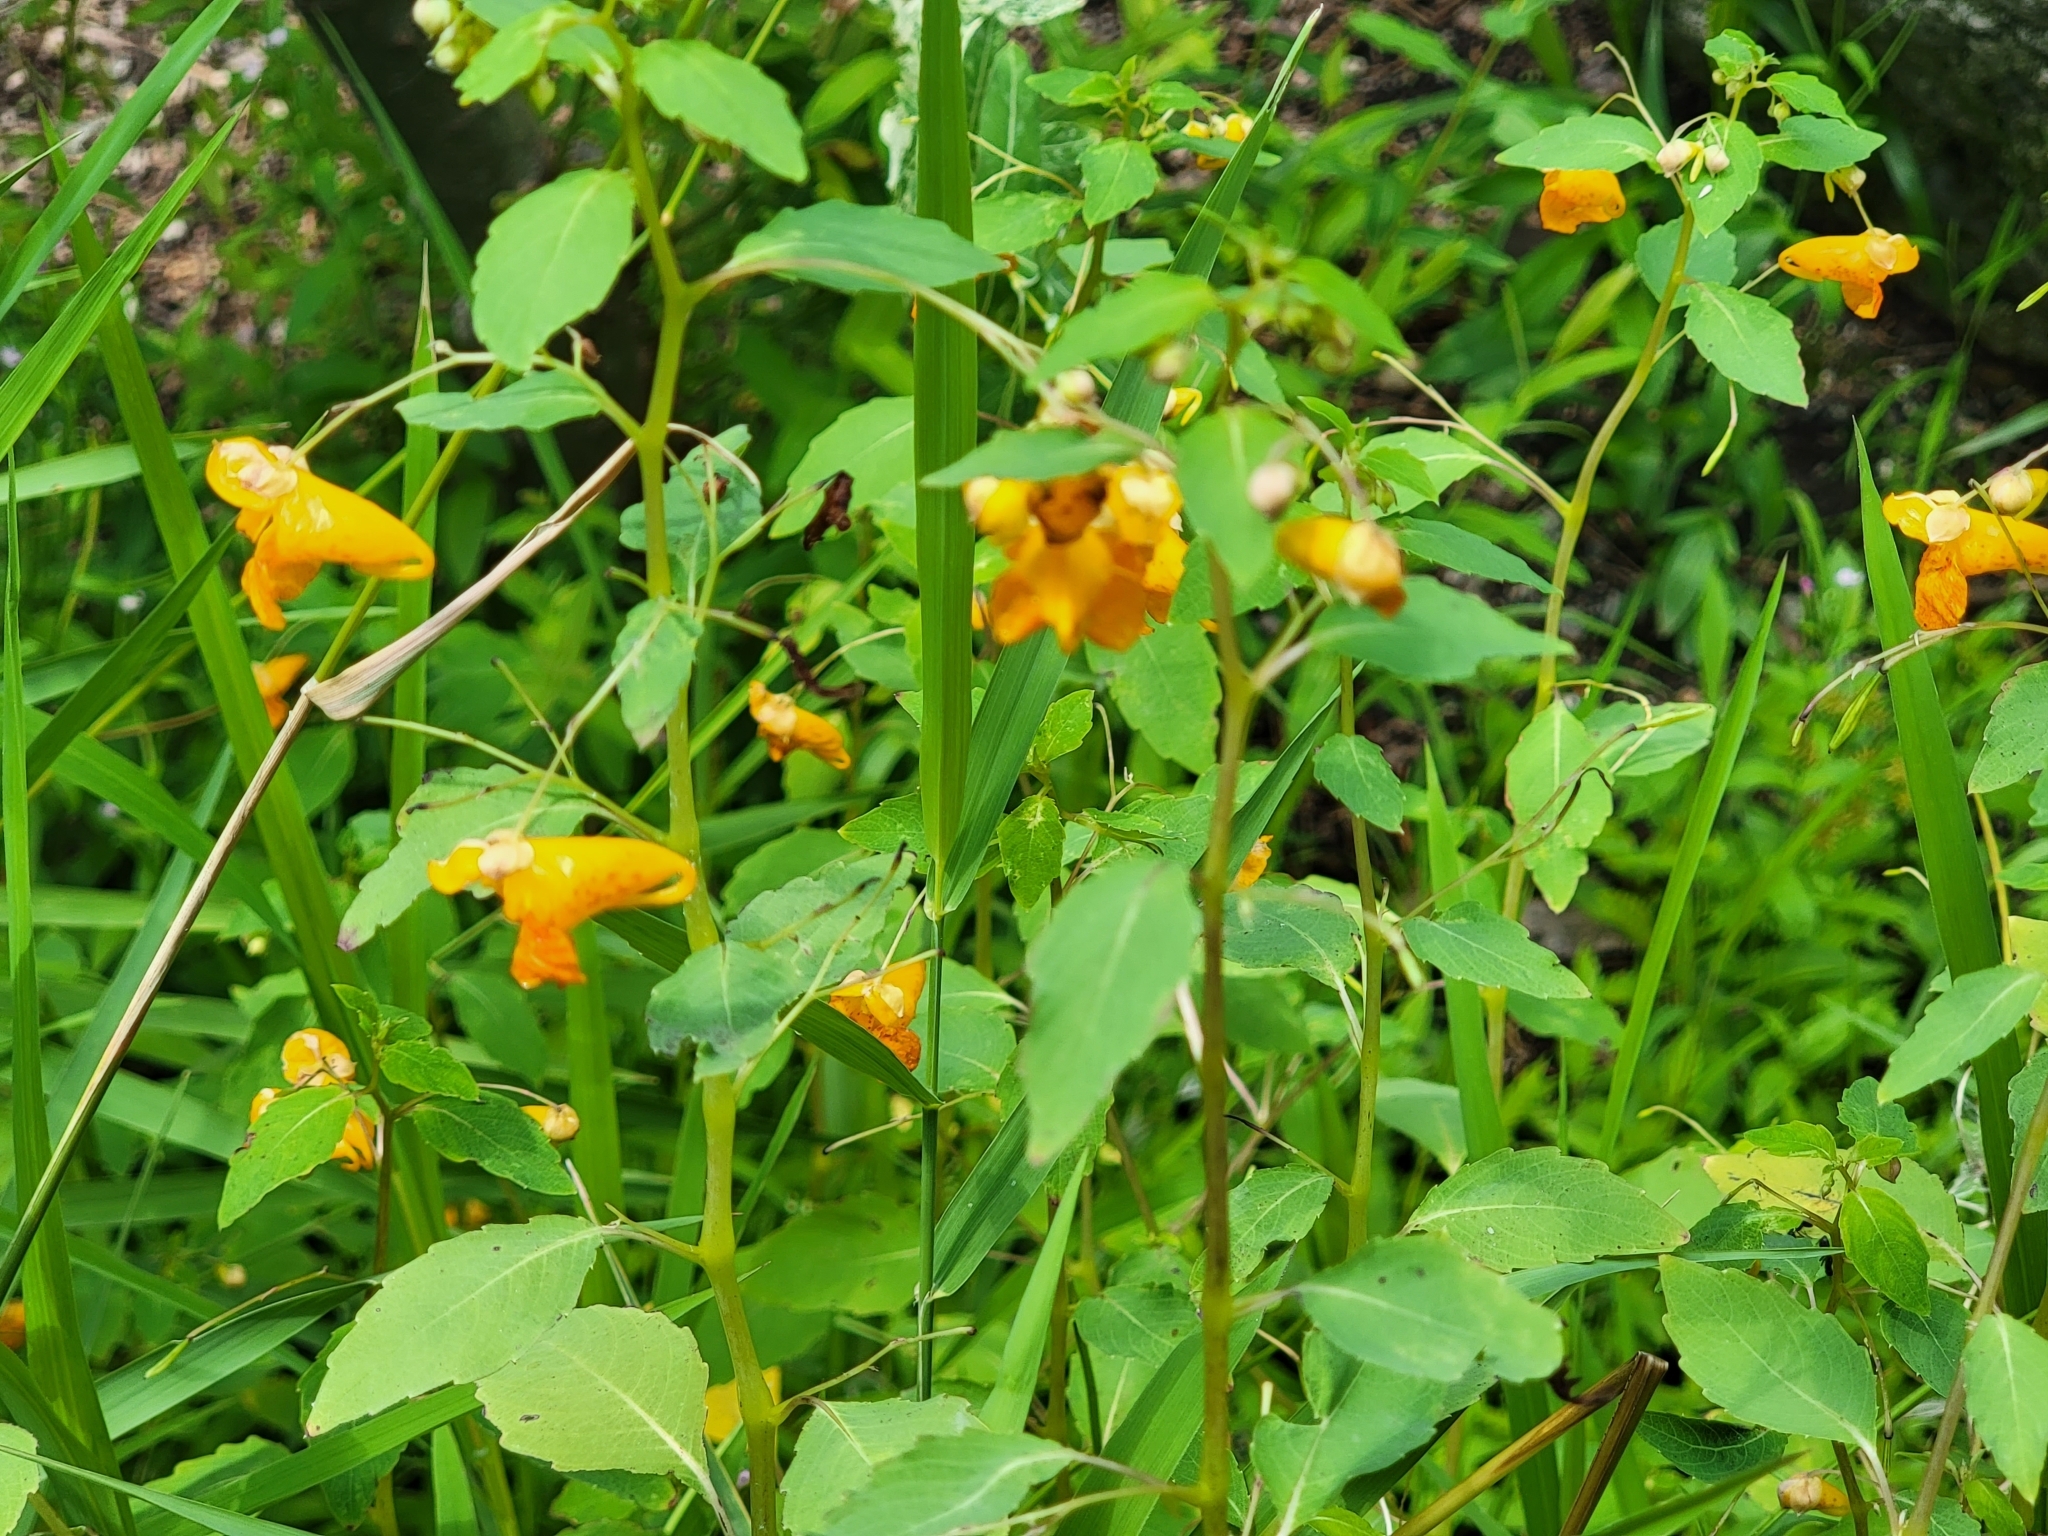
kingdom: Plantae
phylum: Tracheophyta
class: Magnoliopsida
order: Ericales
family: Balsaminaceae
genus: Impatiens
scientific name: Impatiens capensis
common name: Orange balsam
